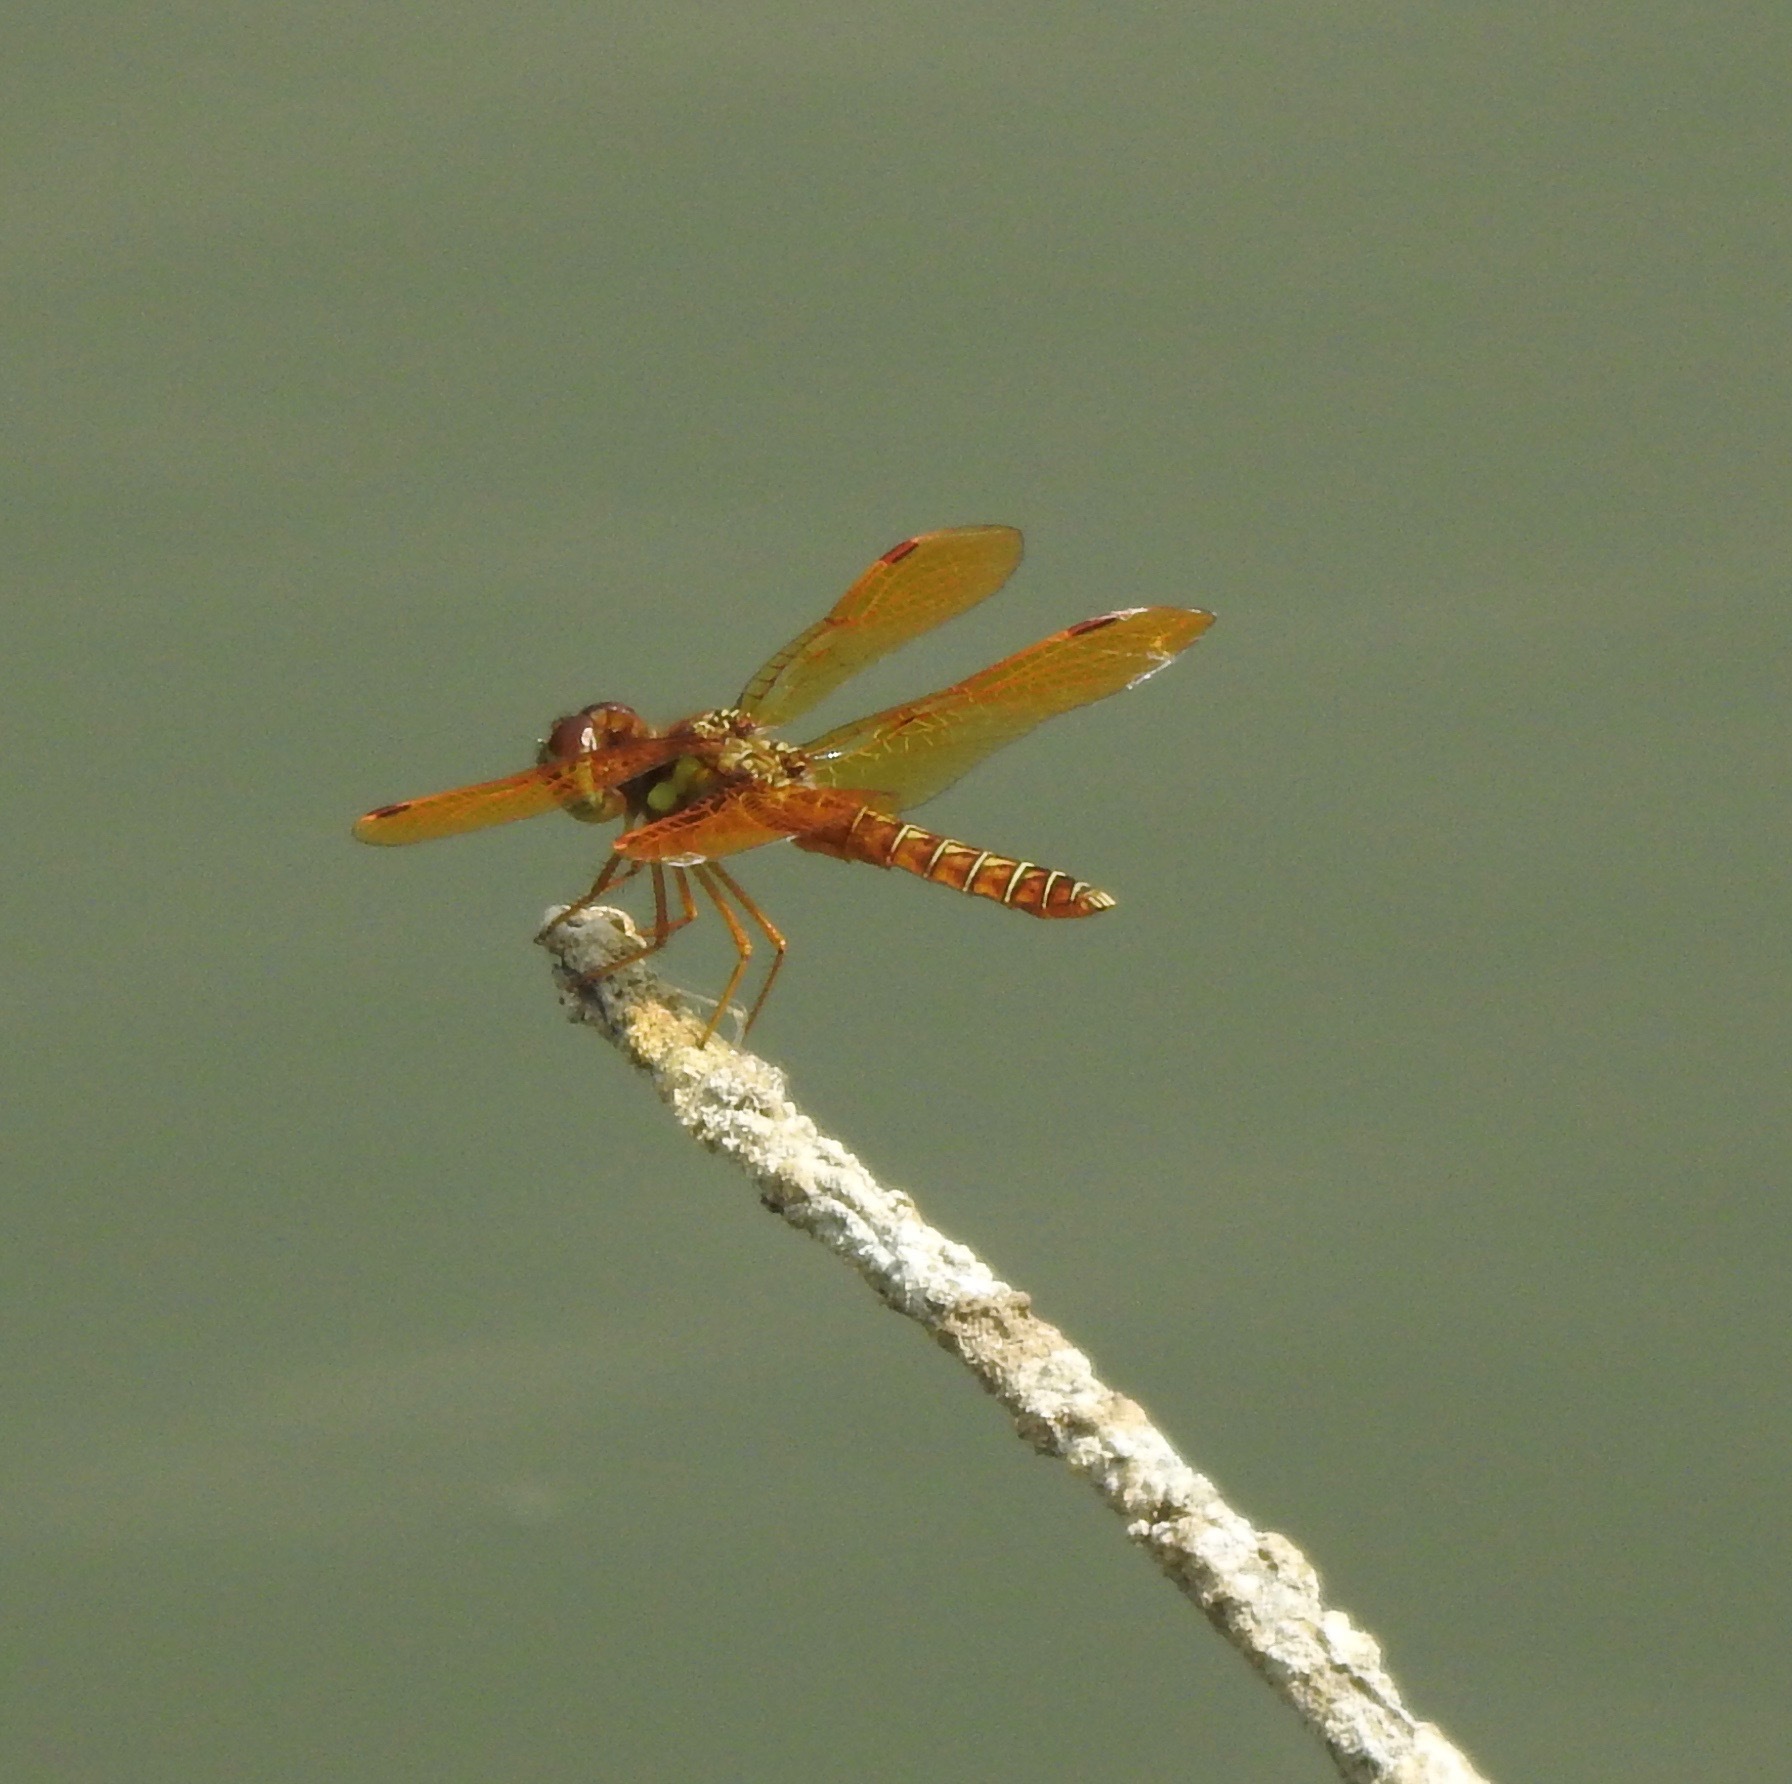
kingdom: Animalia
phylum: Arthropoda
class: Insecta
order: Odonata
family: Libellulidae
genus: Perithemis
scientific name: Perithemis tenera
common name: Eastern amberwing
